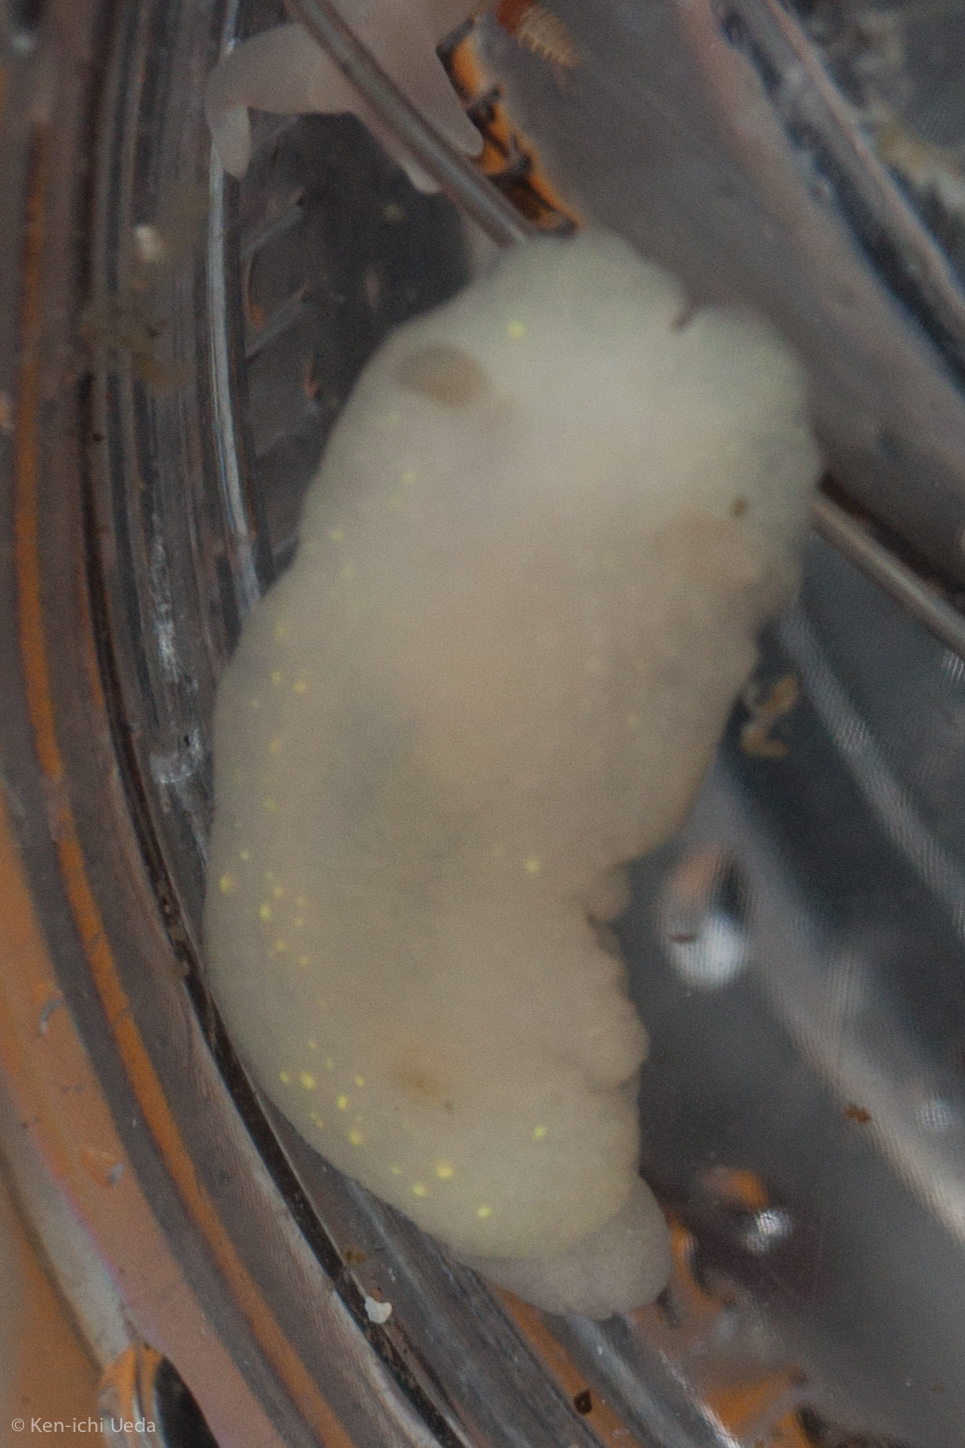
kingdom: Animalia
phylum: Mollusca
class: Gastropoda
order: Nudibranchia
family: Cadlinidae
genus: Cadlina
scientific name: Cadlina modesta
